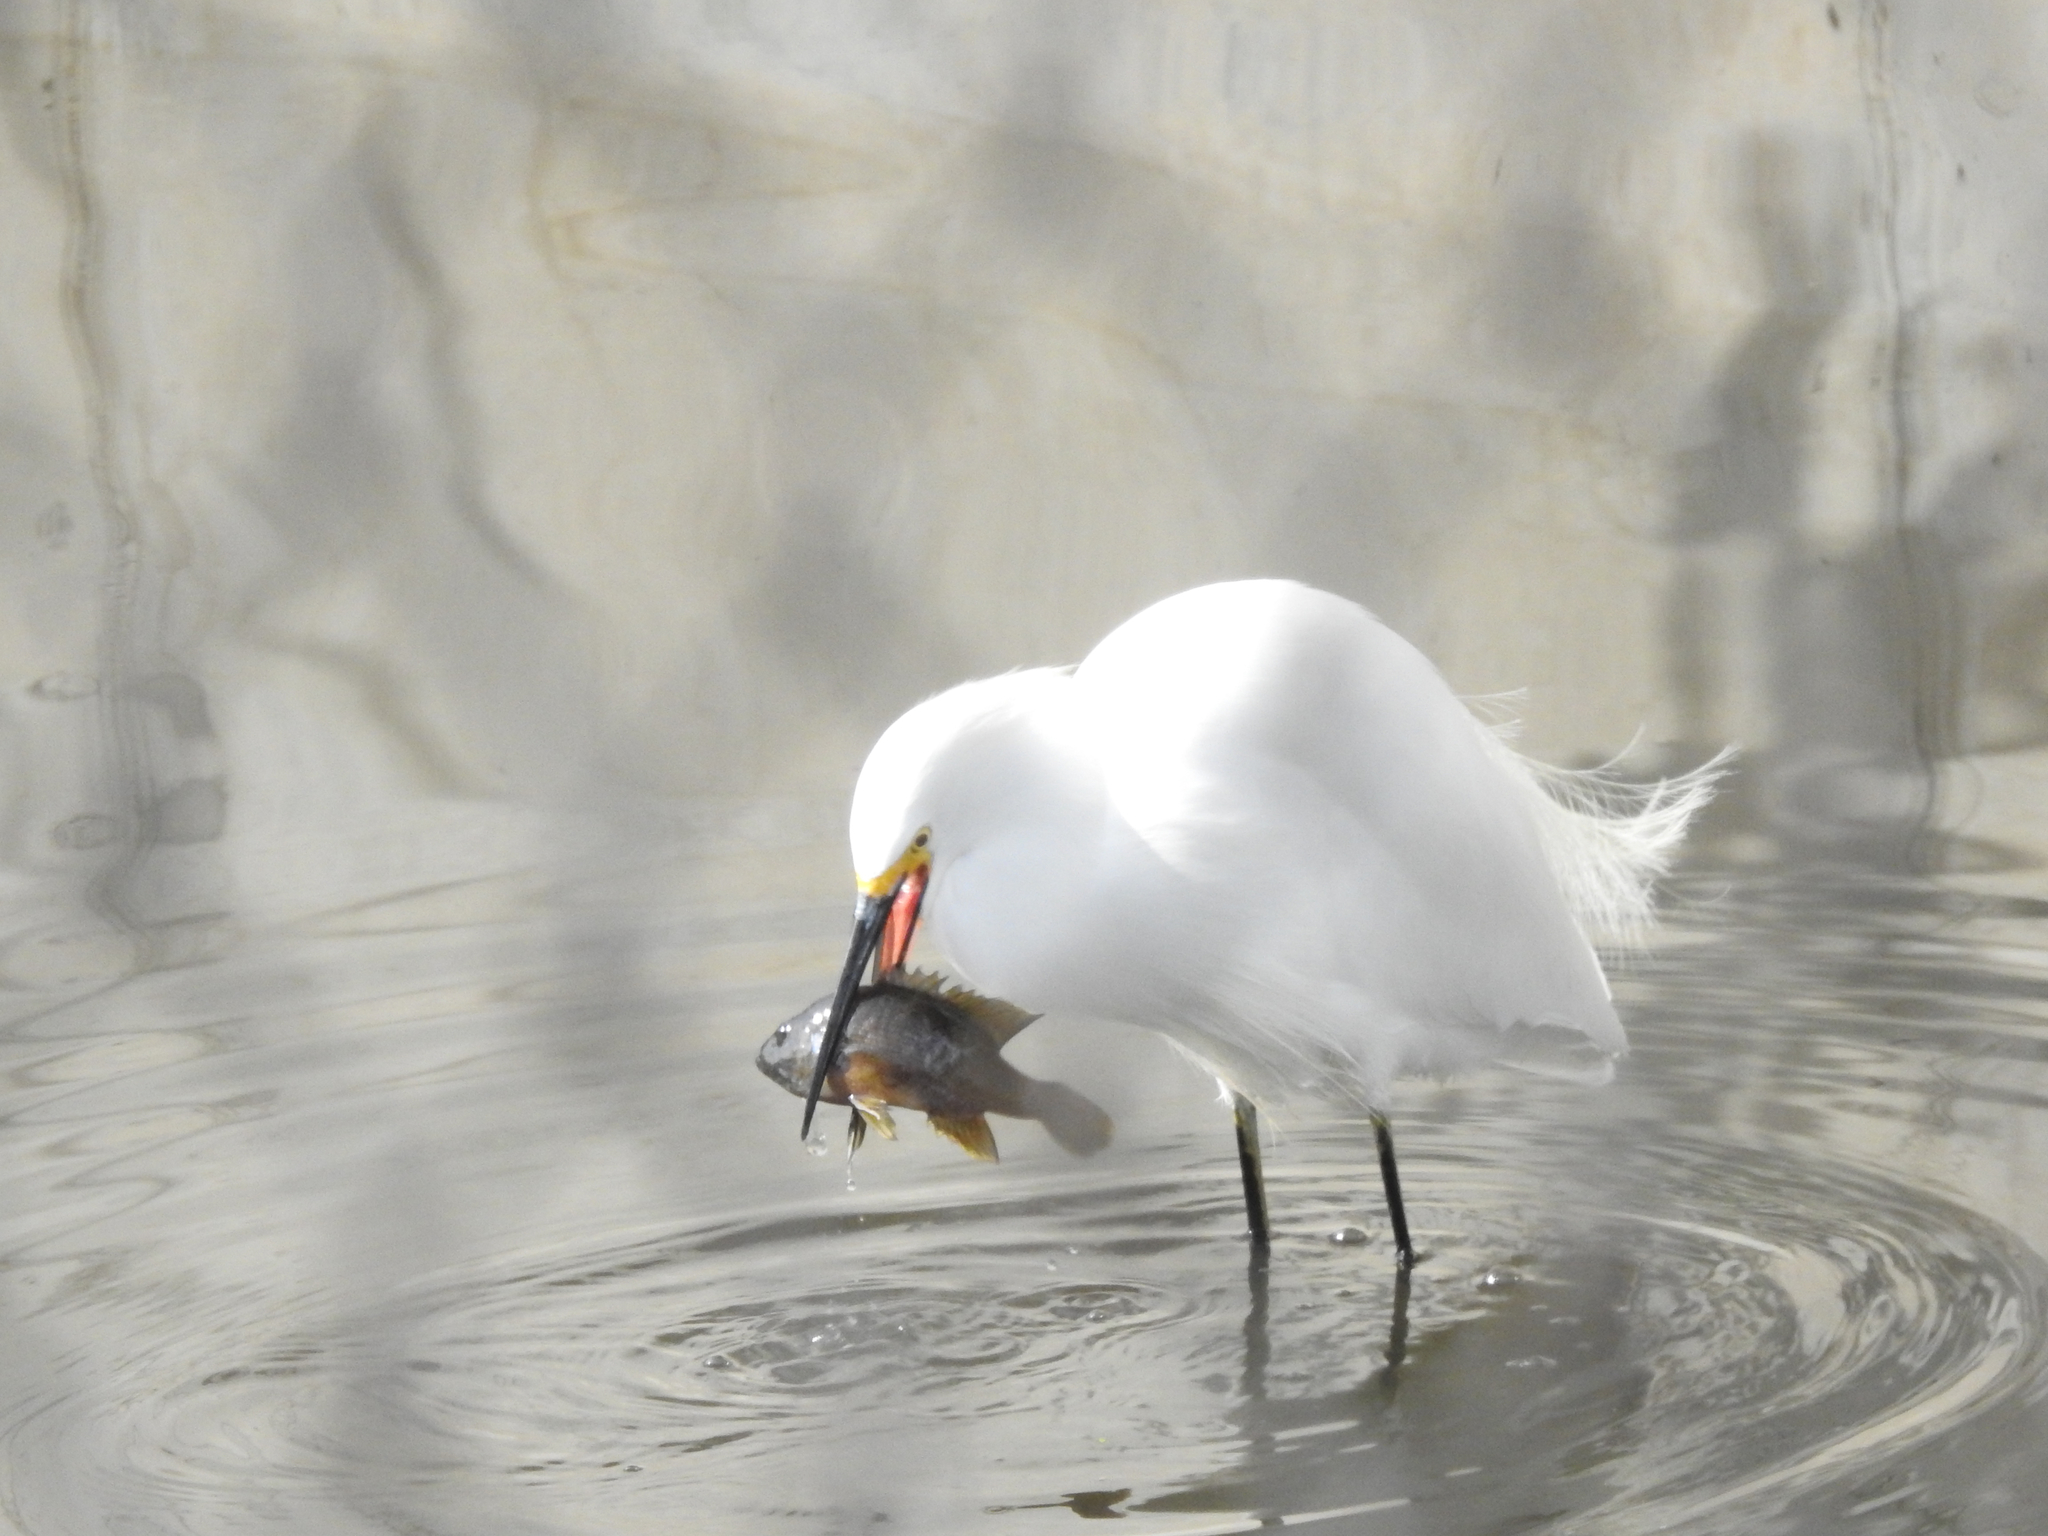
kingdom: Animalia
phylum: Chordata
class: Aves
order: Pelecaniformes
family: Ardeidae
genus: Egretta
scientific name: Egretta thula
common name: Snowy egret
